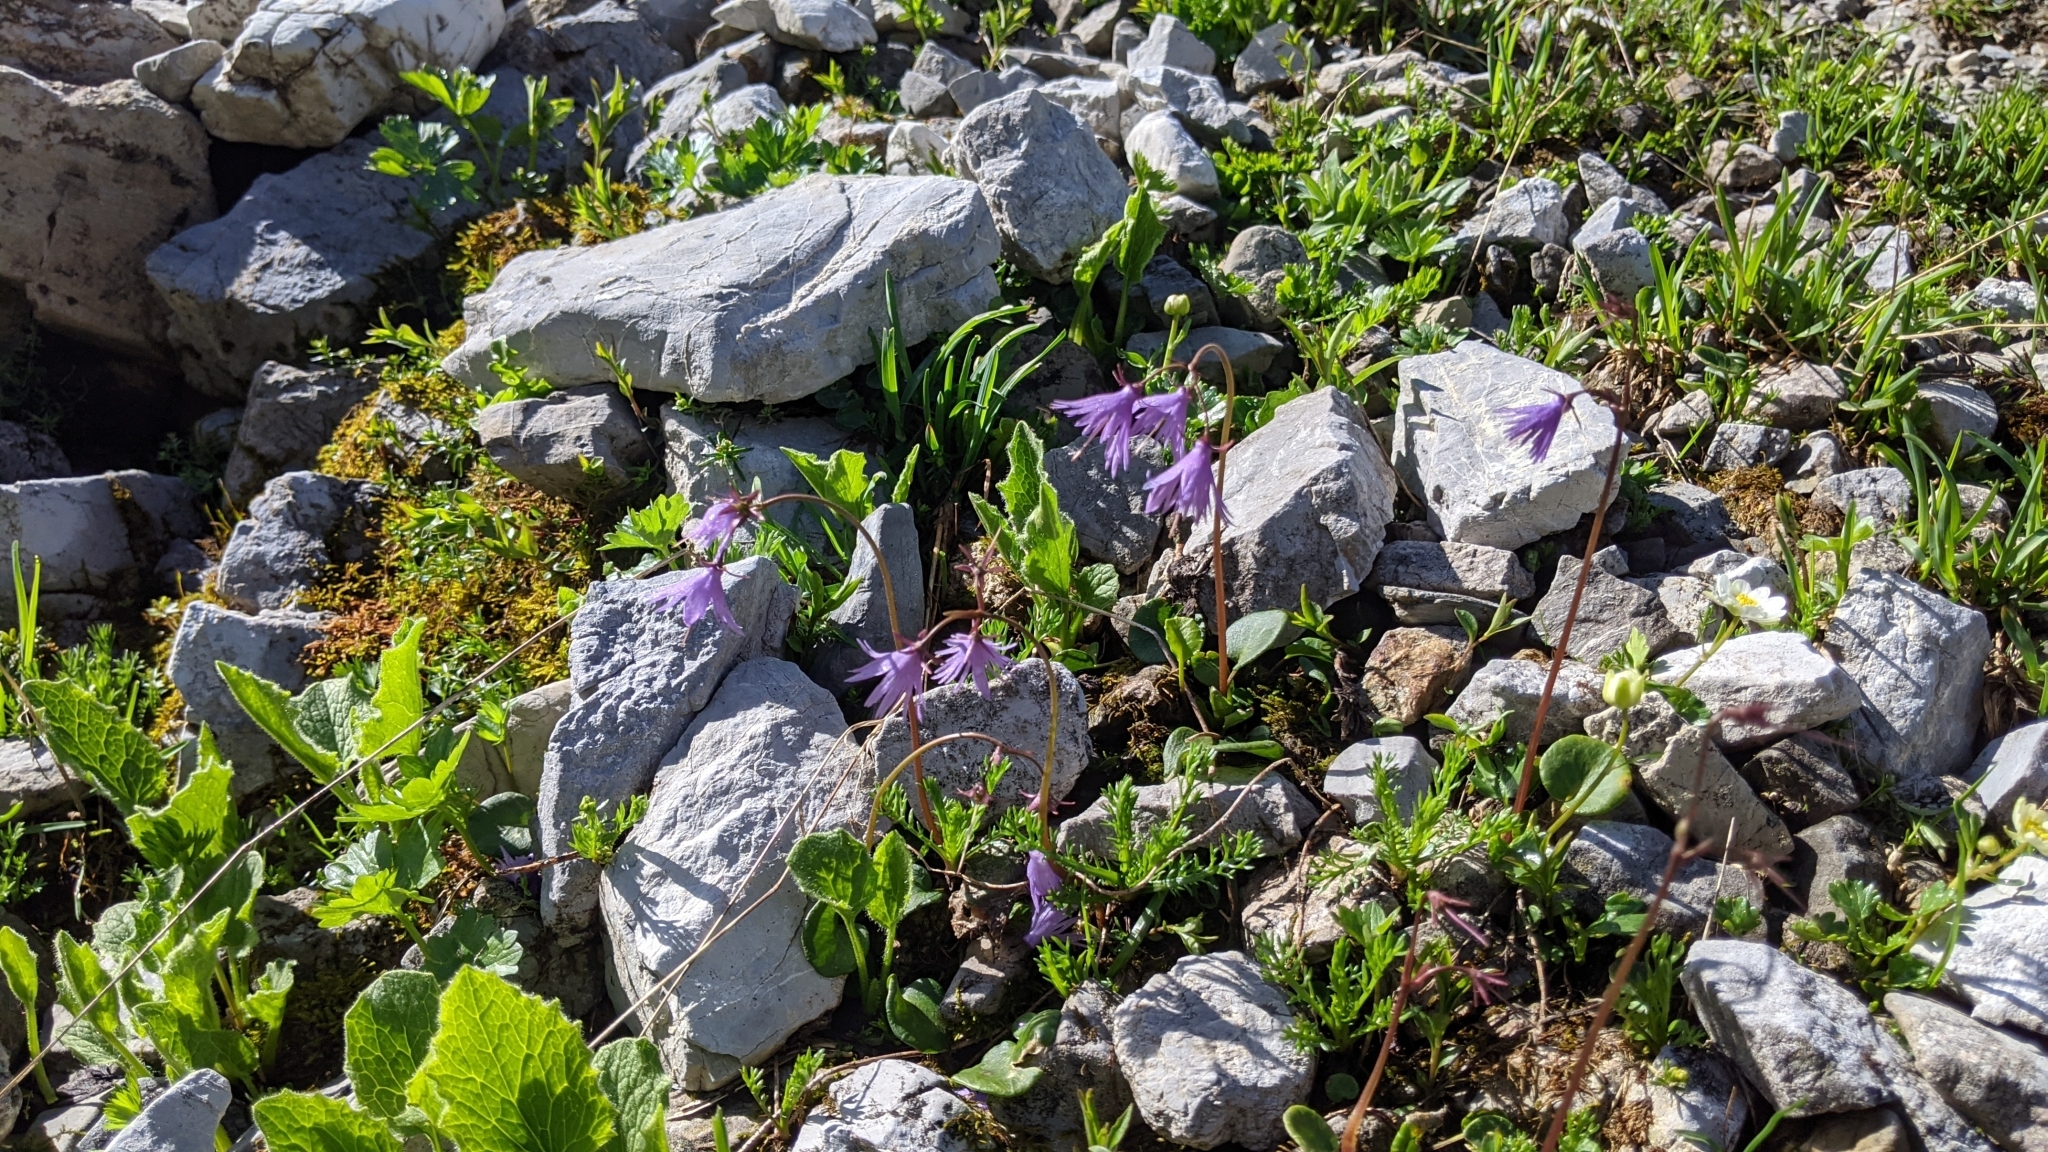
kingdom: Plantae
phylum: Tracheophyta
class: Magnoliopsida
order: Ericales
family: Primulaceae
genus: Soldanella
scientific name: Soldanella alpina
